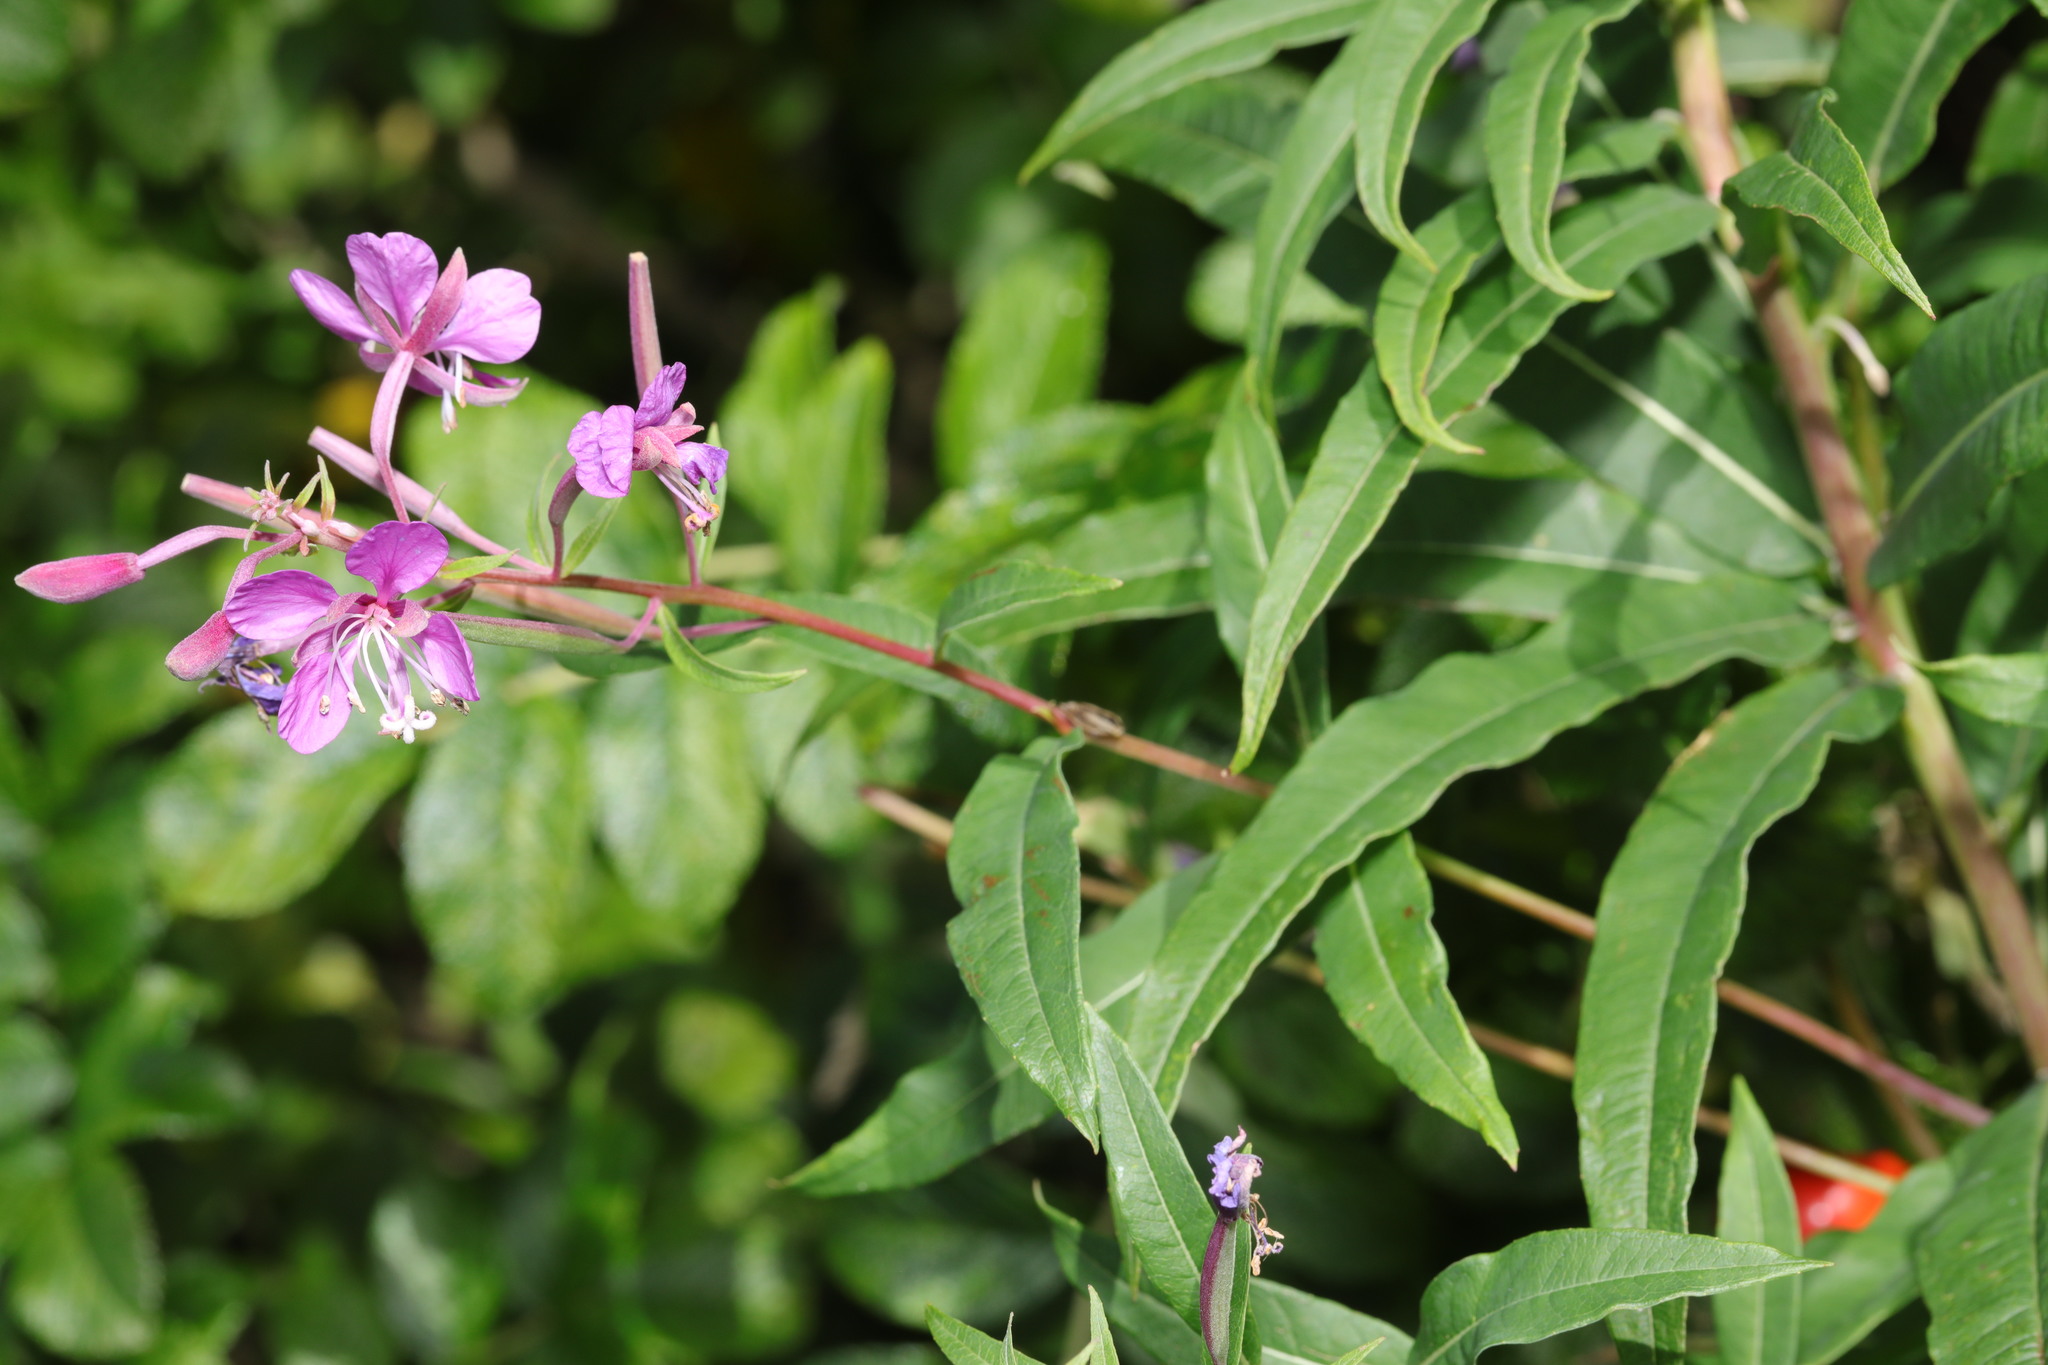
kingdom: Plantae
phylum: Tracheophyta
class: Magnoliopsida
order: Myrtales
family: Onagraceae
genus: Chamaenerion
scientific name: Chamaenerion angustifolium
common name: Fireweed
